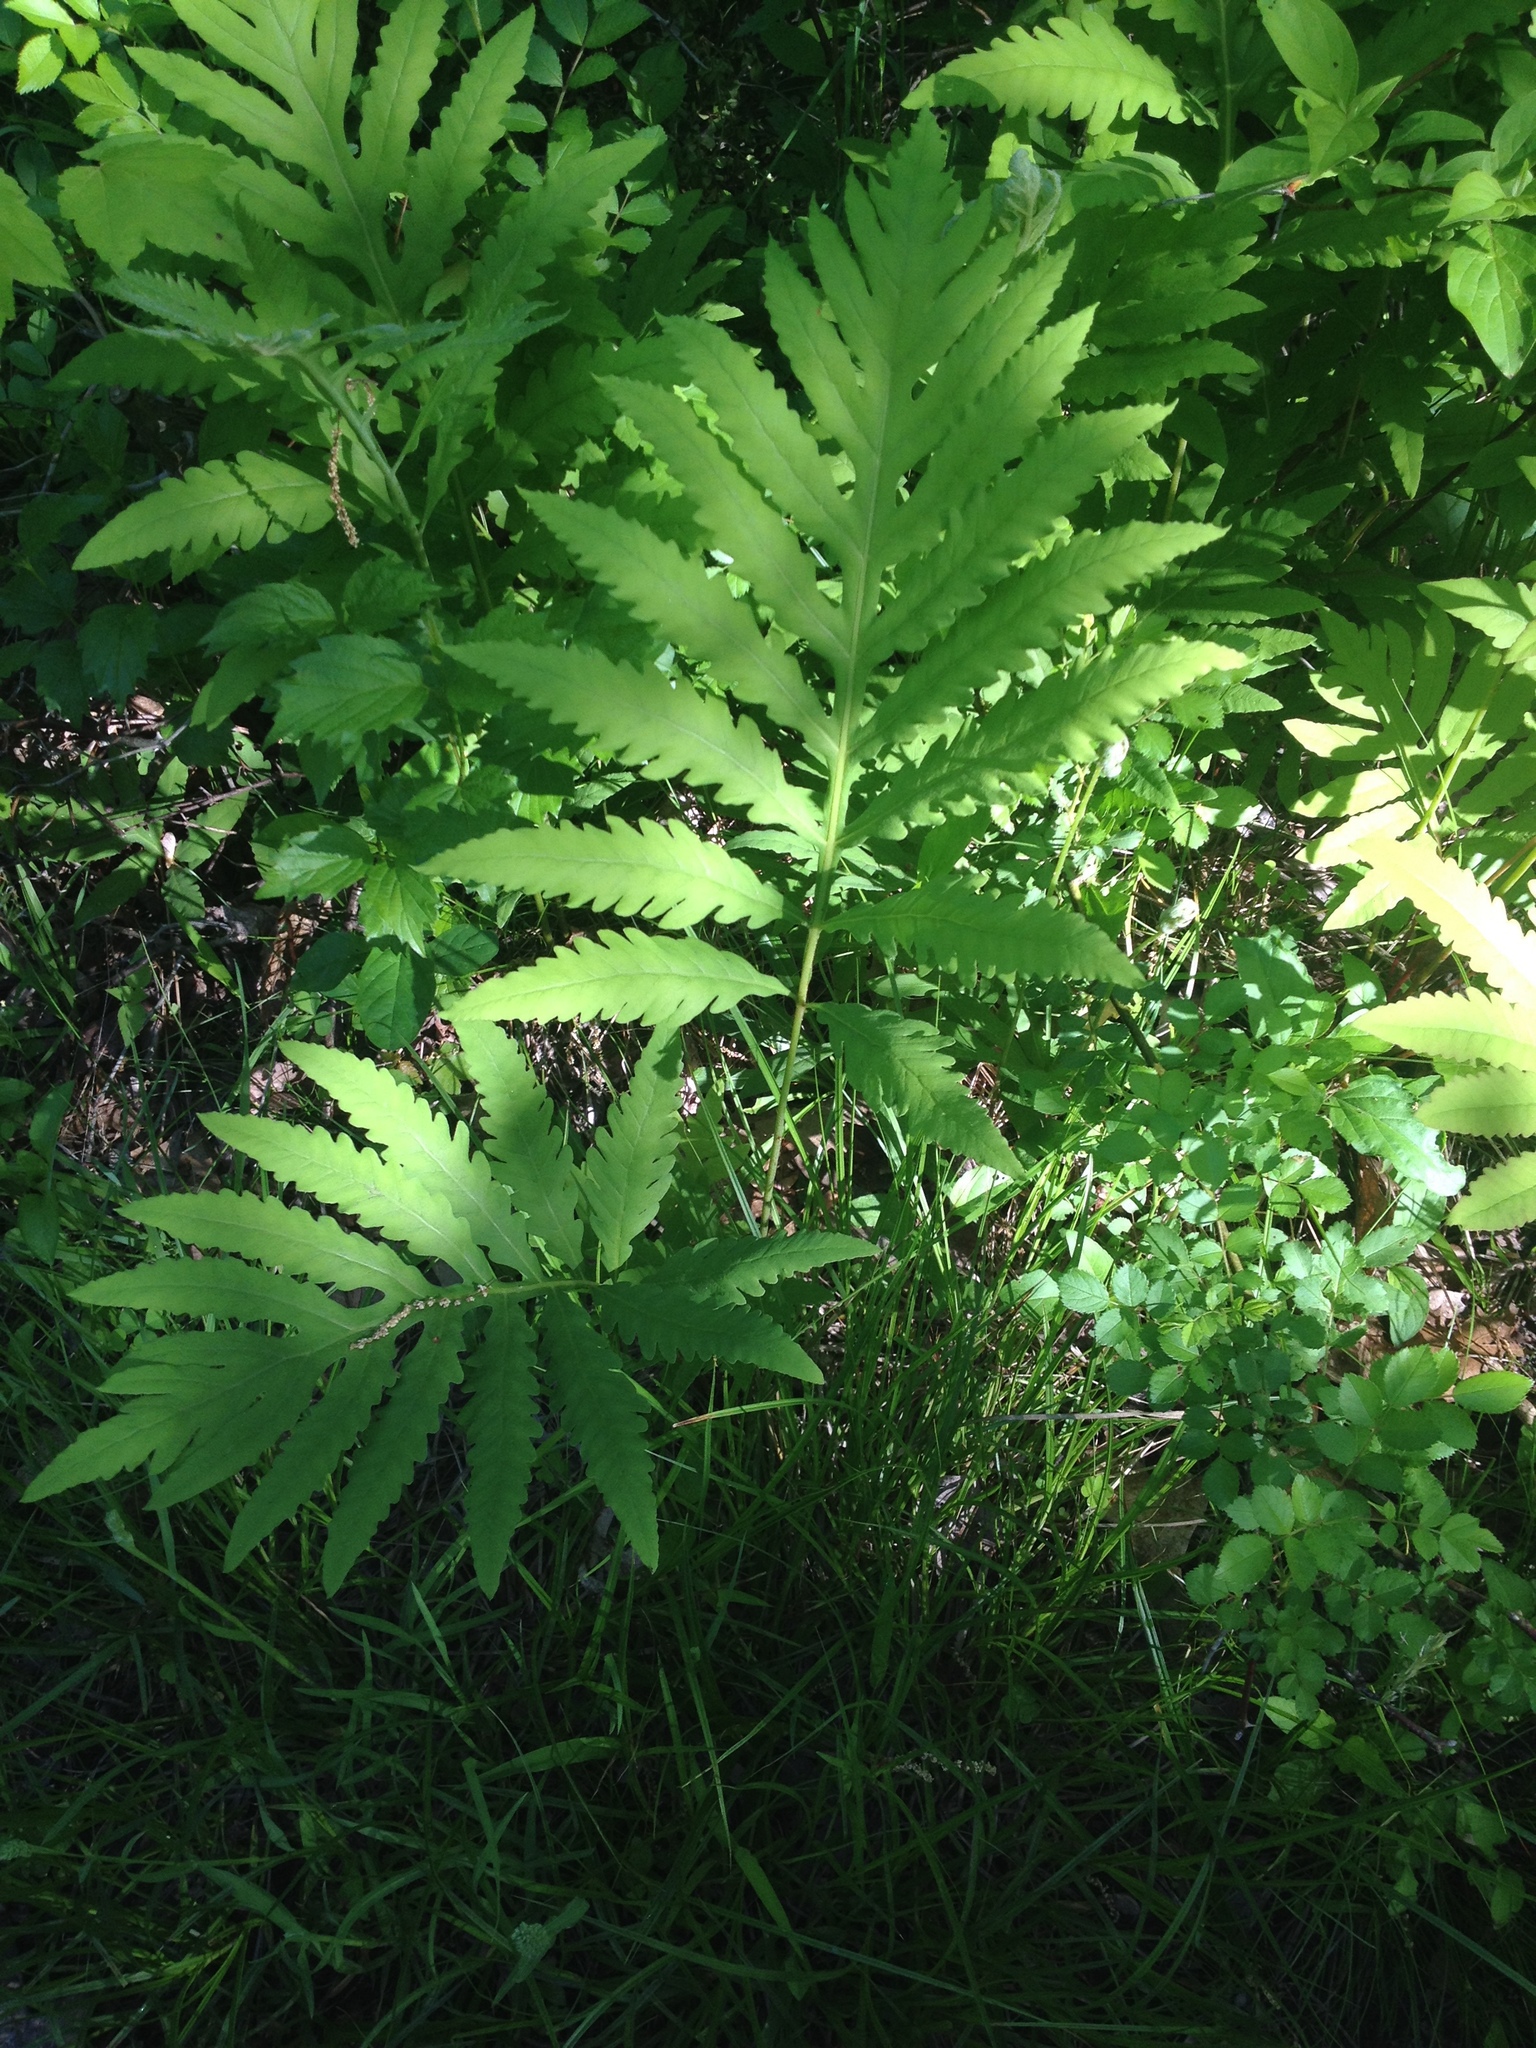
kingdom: Plantae
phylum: Tracheophyta
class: Polypodiopsida
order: Polypodiales
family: Onocleaceae
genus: Onoclea
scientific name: Onoclea sensibilis
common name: Sensitive fern
